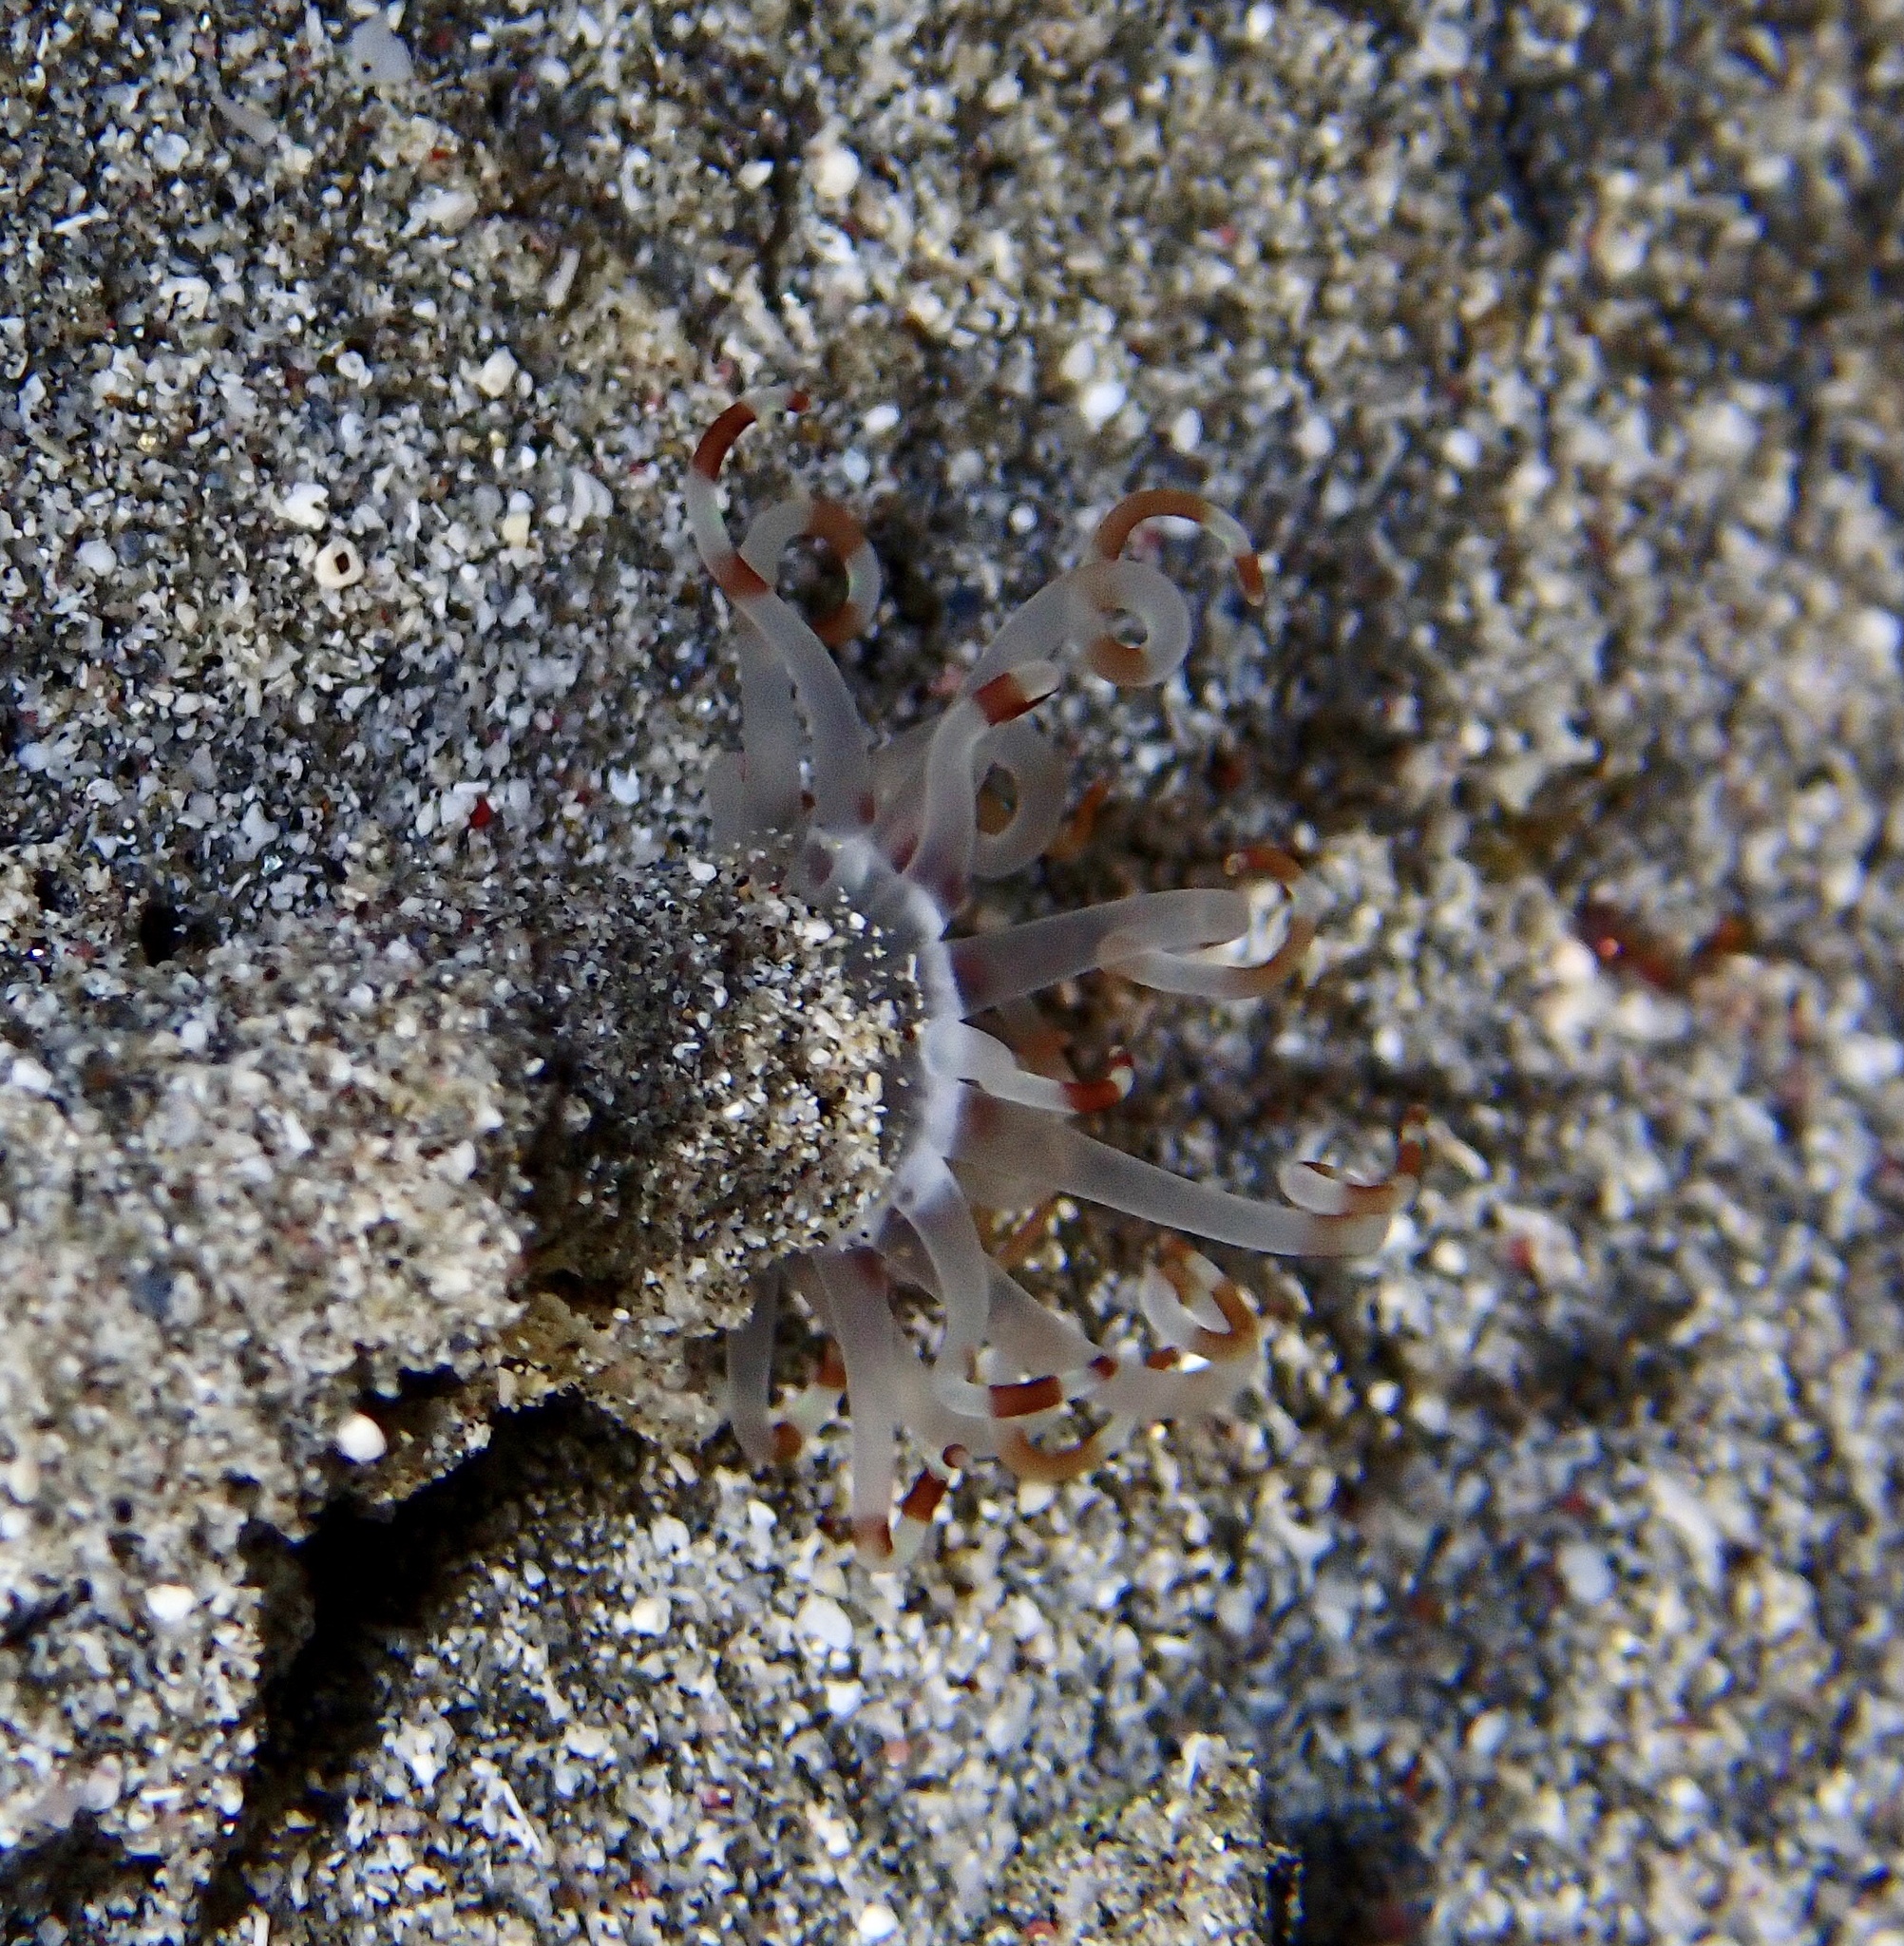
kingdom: Animalia
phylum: Cnidaria
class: Anthozoa
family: Arachnactidae
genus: Arachnanthus
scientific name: Arachnanthus lilith
